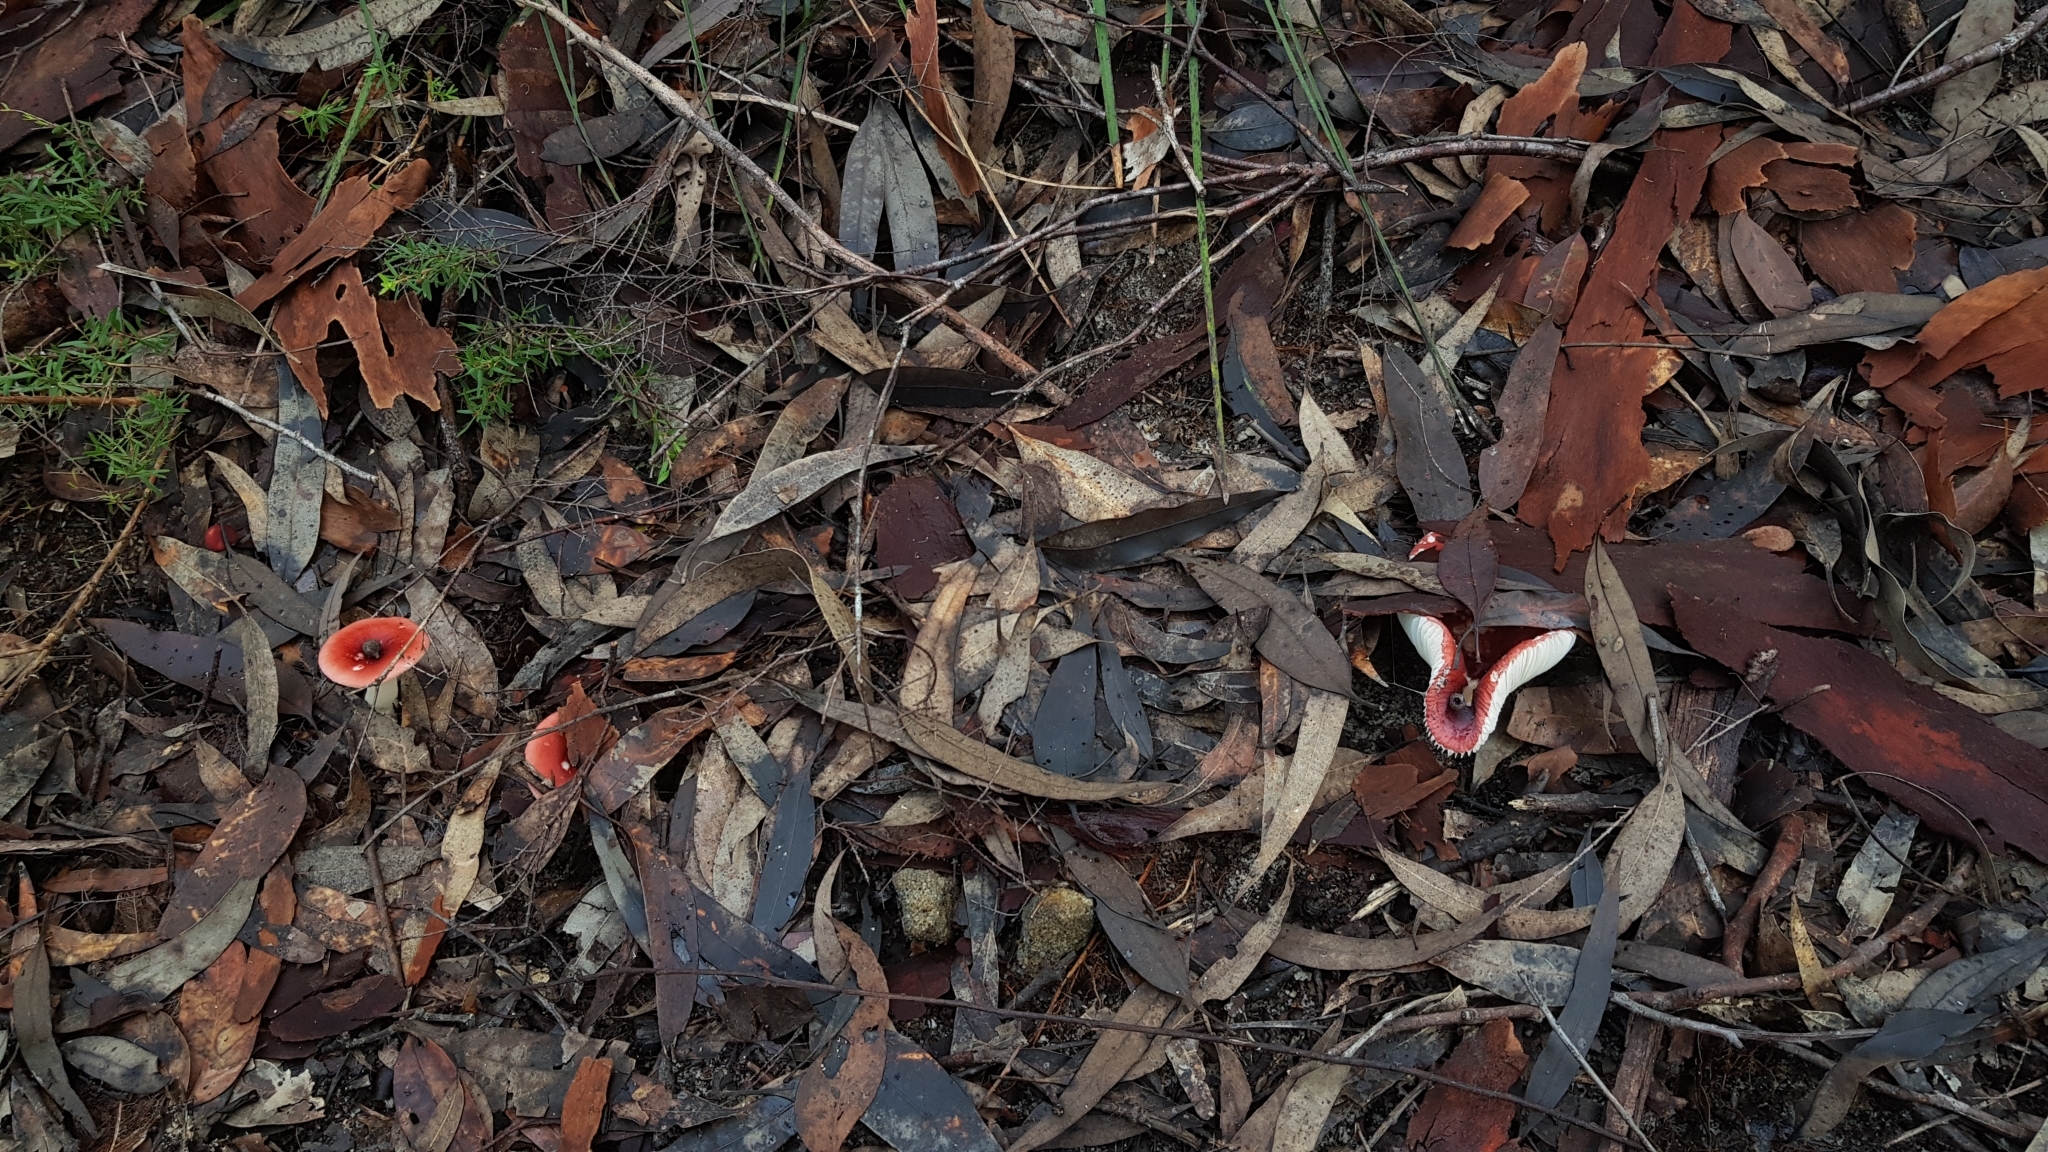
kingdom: Fungi
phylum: Basidiomycota
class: Agaricomycetes
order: Russulales
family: Russulaceae
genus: Russula
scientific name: Russula persanguinea
